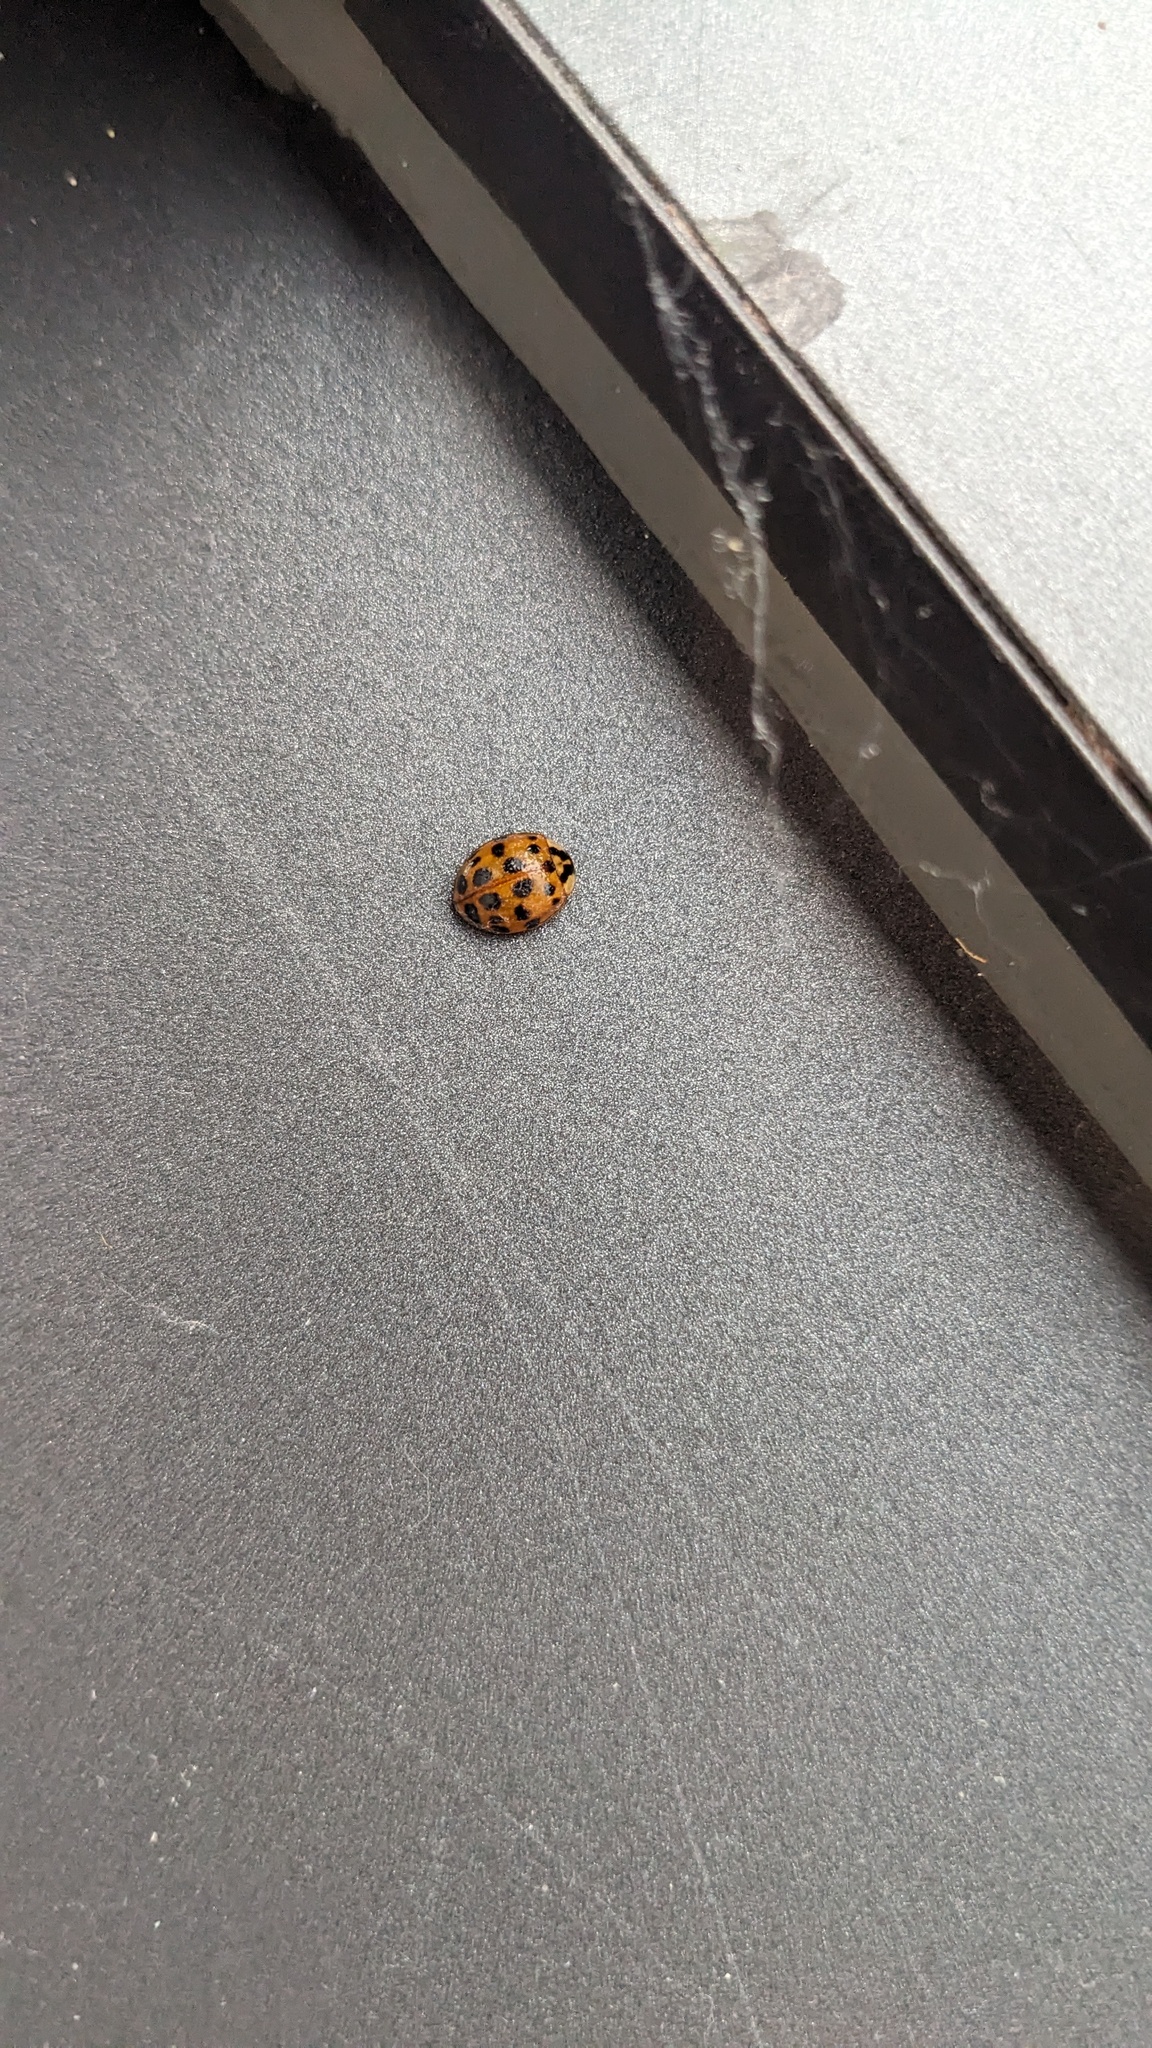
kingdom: Animalia
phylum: Arthropoda
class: Insecta
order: Coleoptera
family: Coccinellidae
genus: Harmonia
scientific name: Harmonia axyridis
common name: Harlequin ladybird
